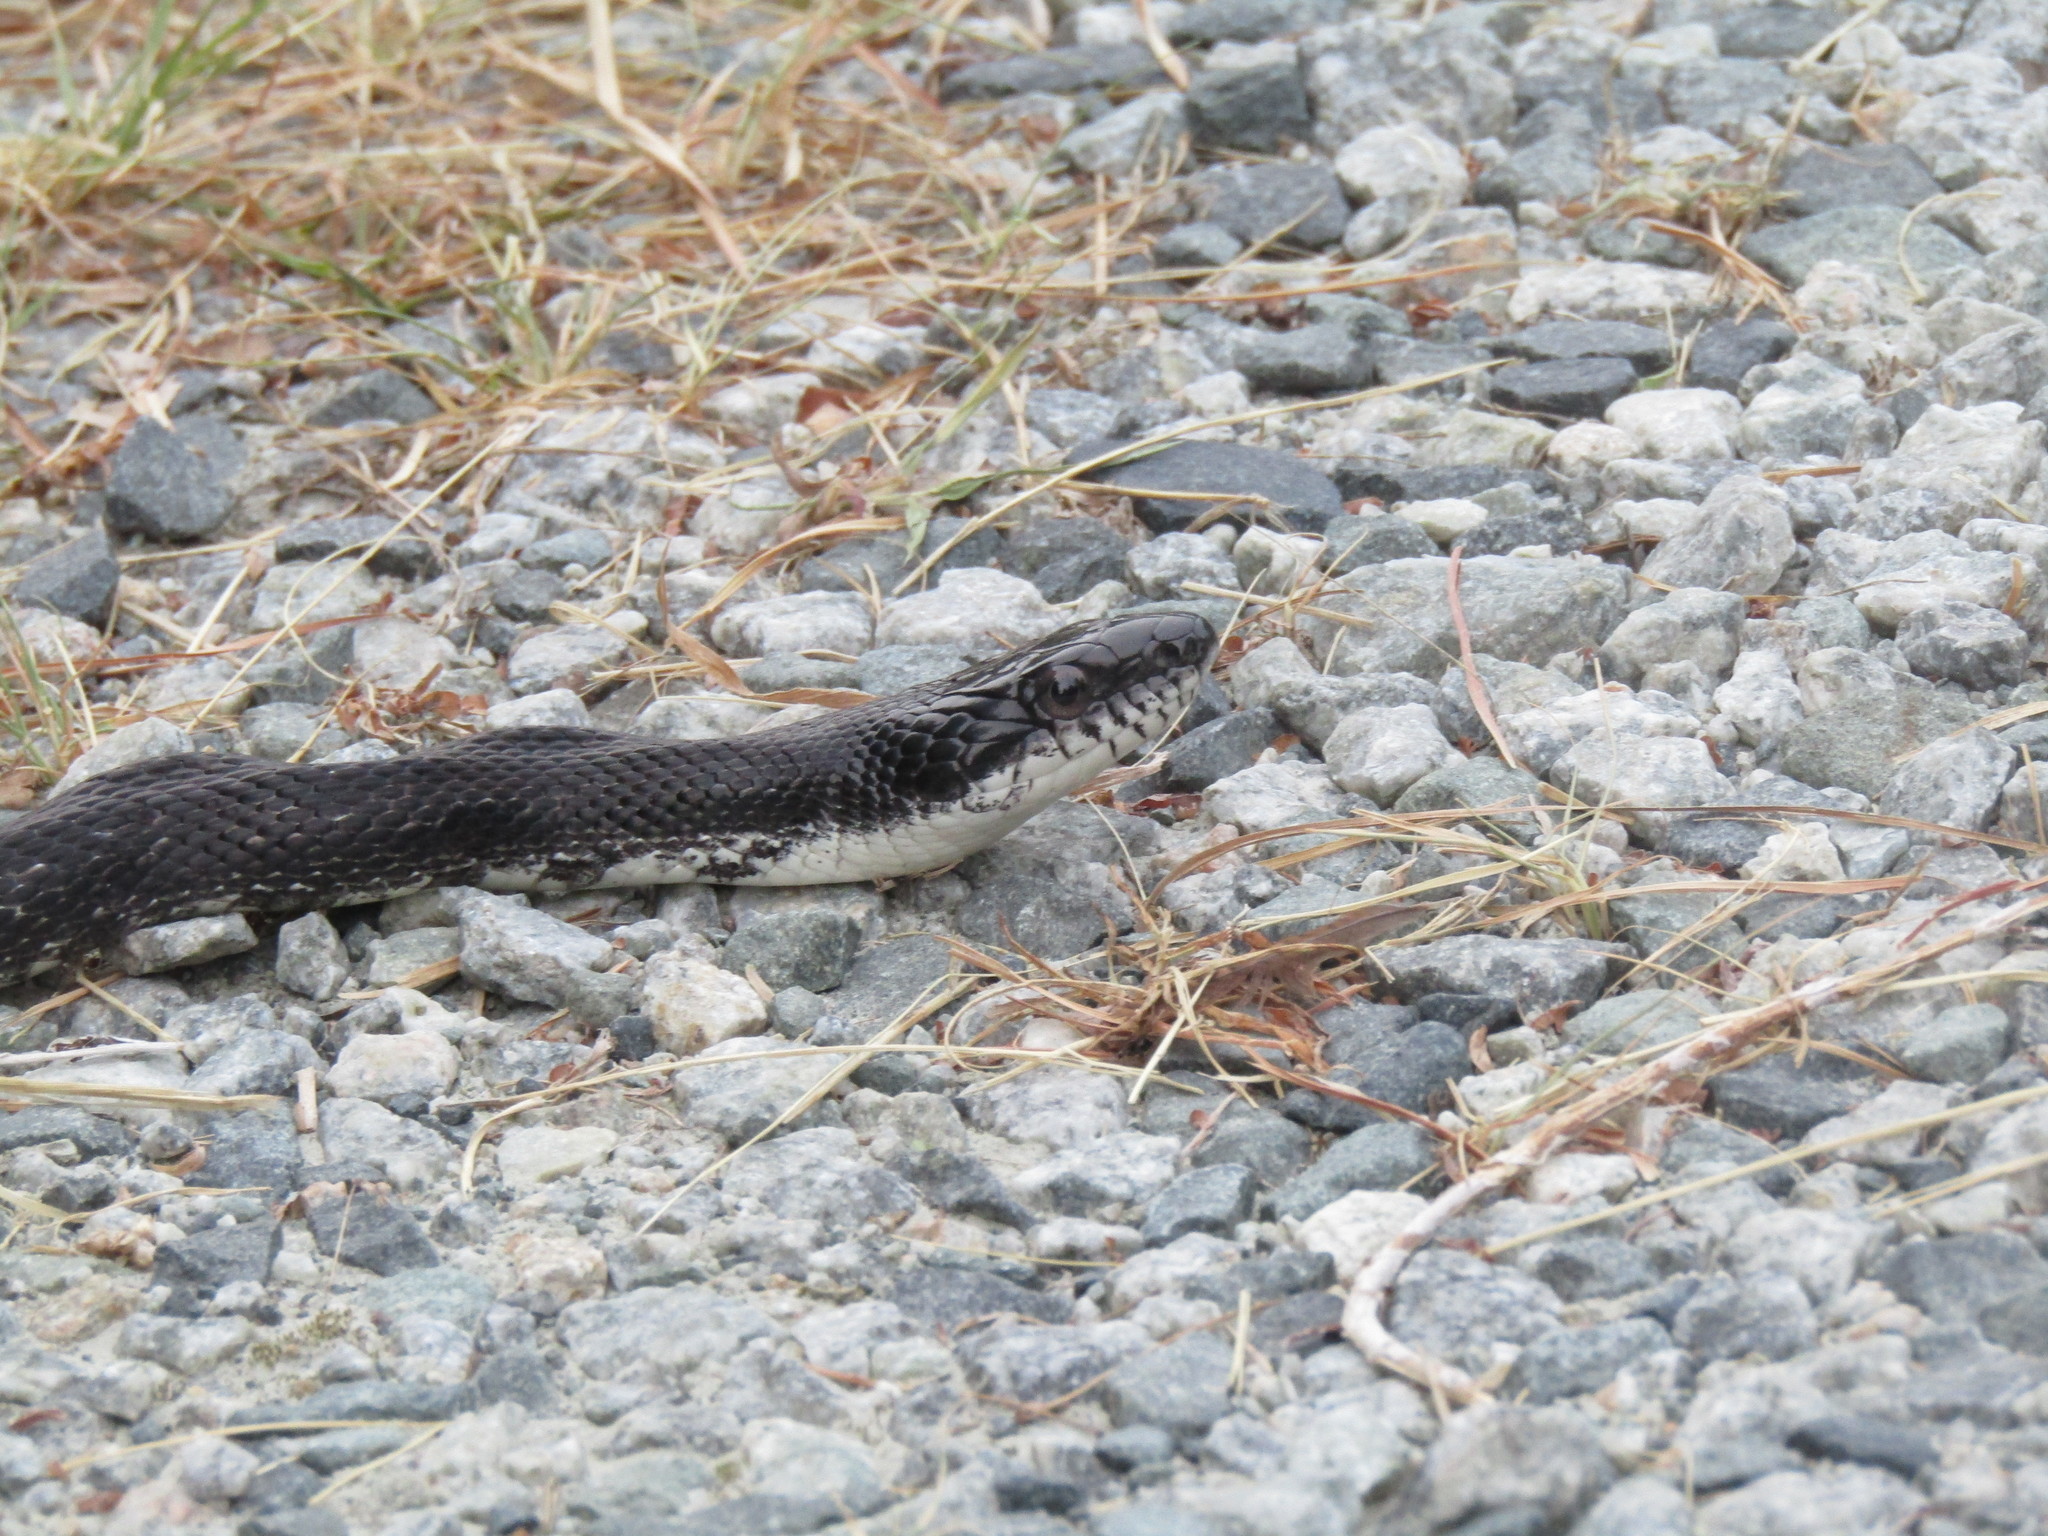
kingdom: Animalia
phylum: Chordata
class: Squamata
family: Colubridae
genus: Pantherophis
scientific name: Pantherophis alleghaniensis
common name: Eastern rat snake
